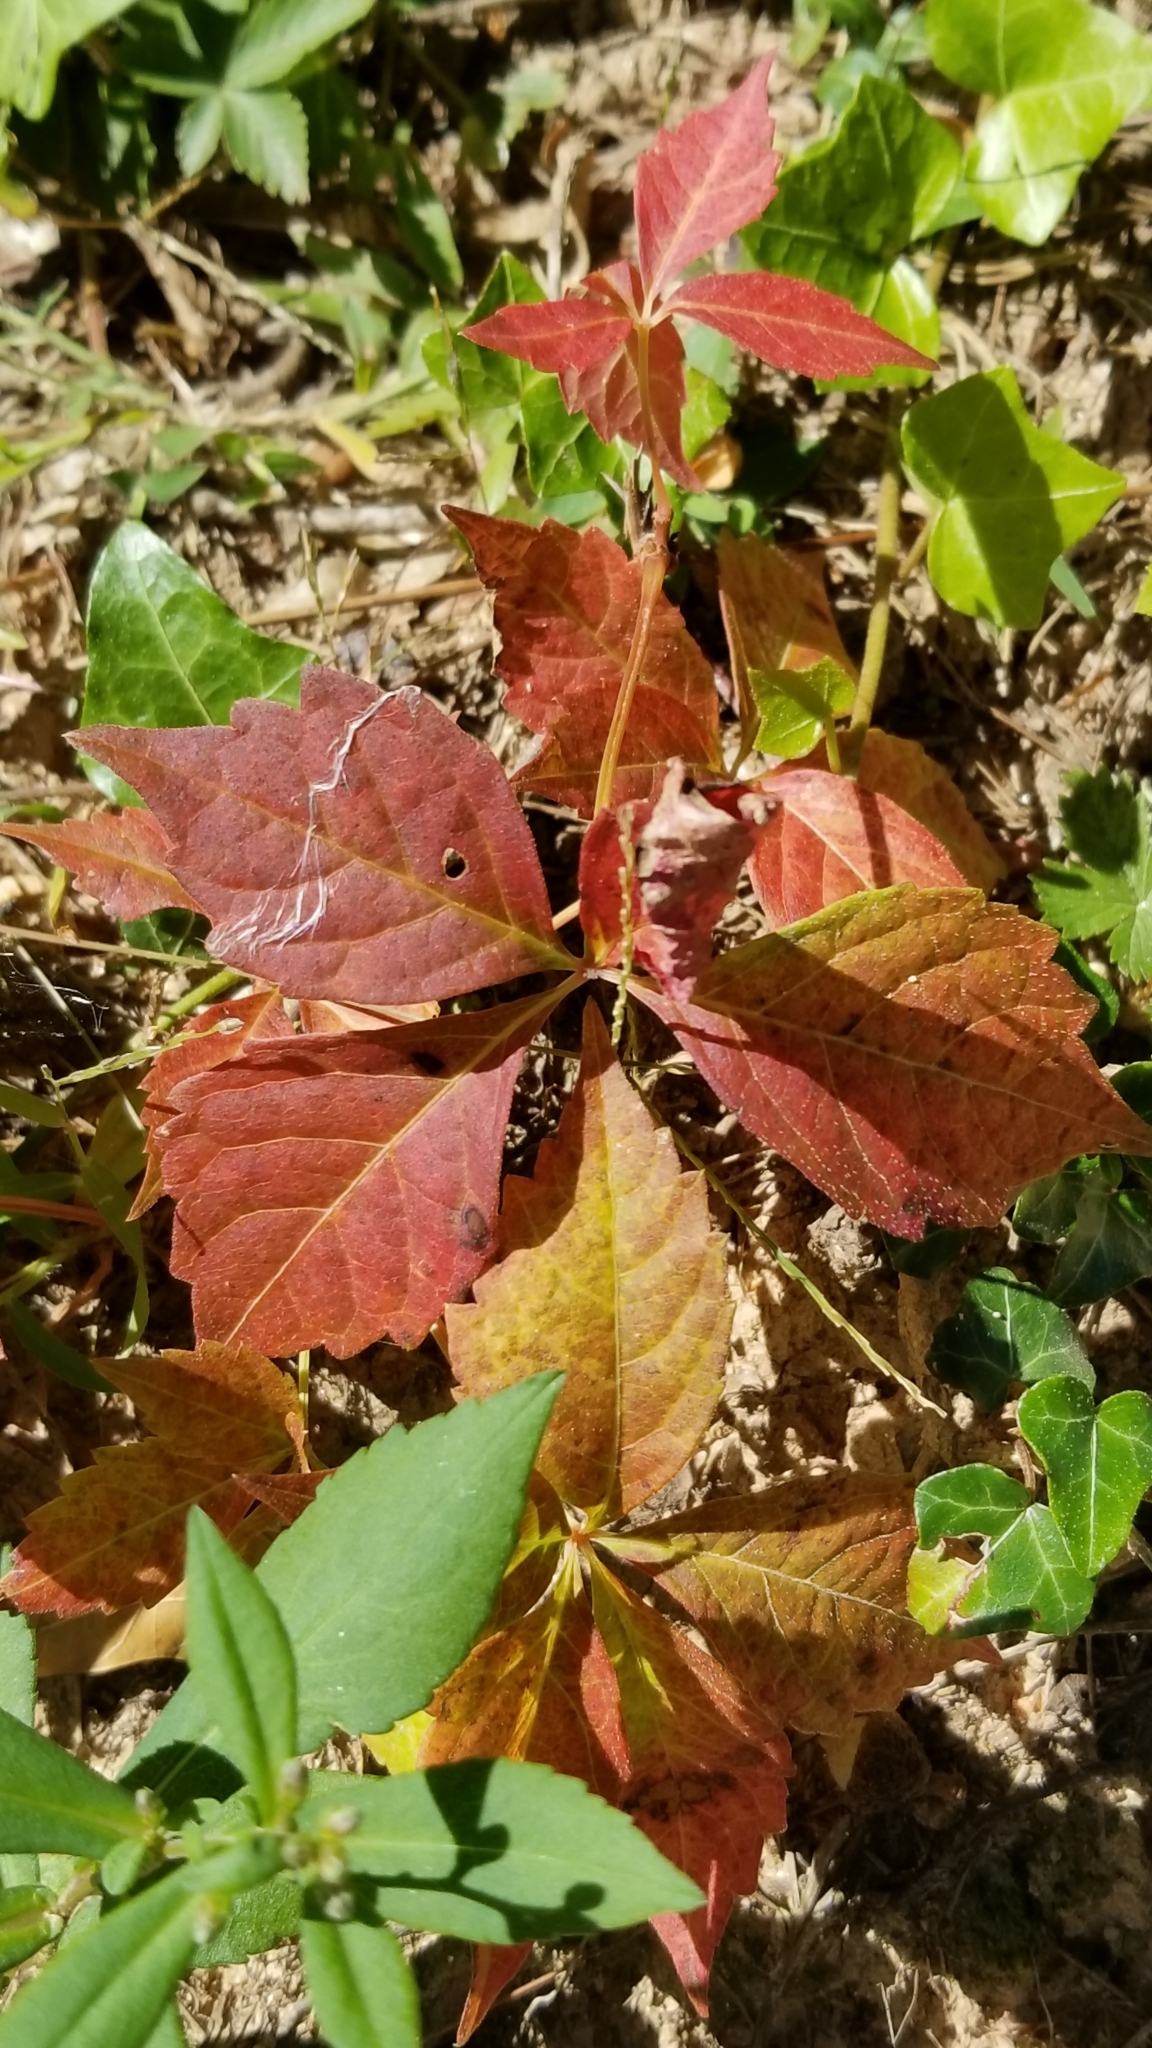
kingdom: Plantae
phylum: Tracheophyta
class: Magnoliopsida
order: Vitales
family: Vitaceae
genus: Parthenocissus
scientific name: Parthenocissus quinquefolia
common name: Virginia-creeper
